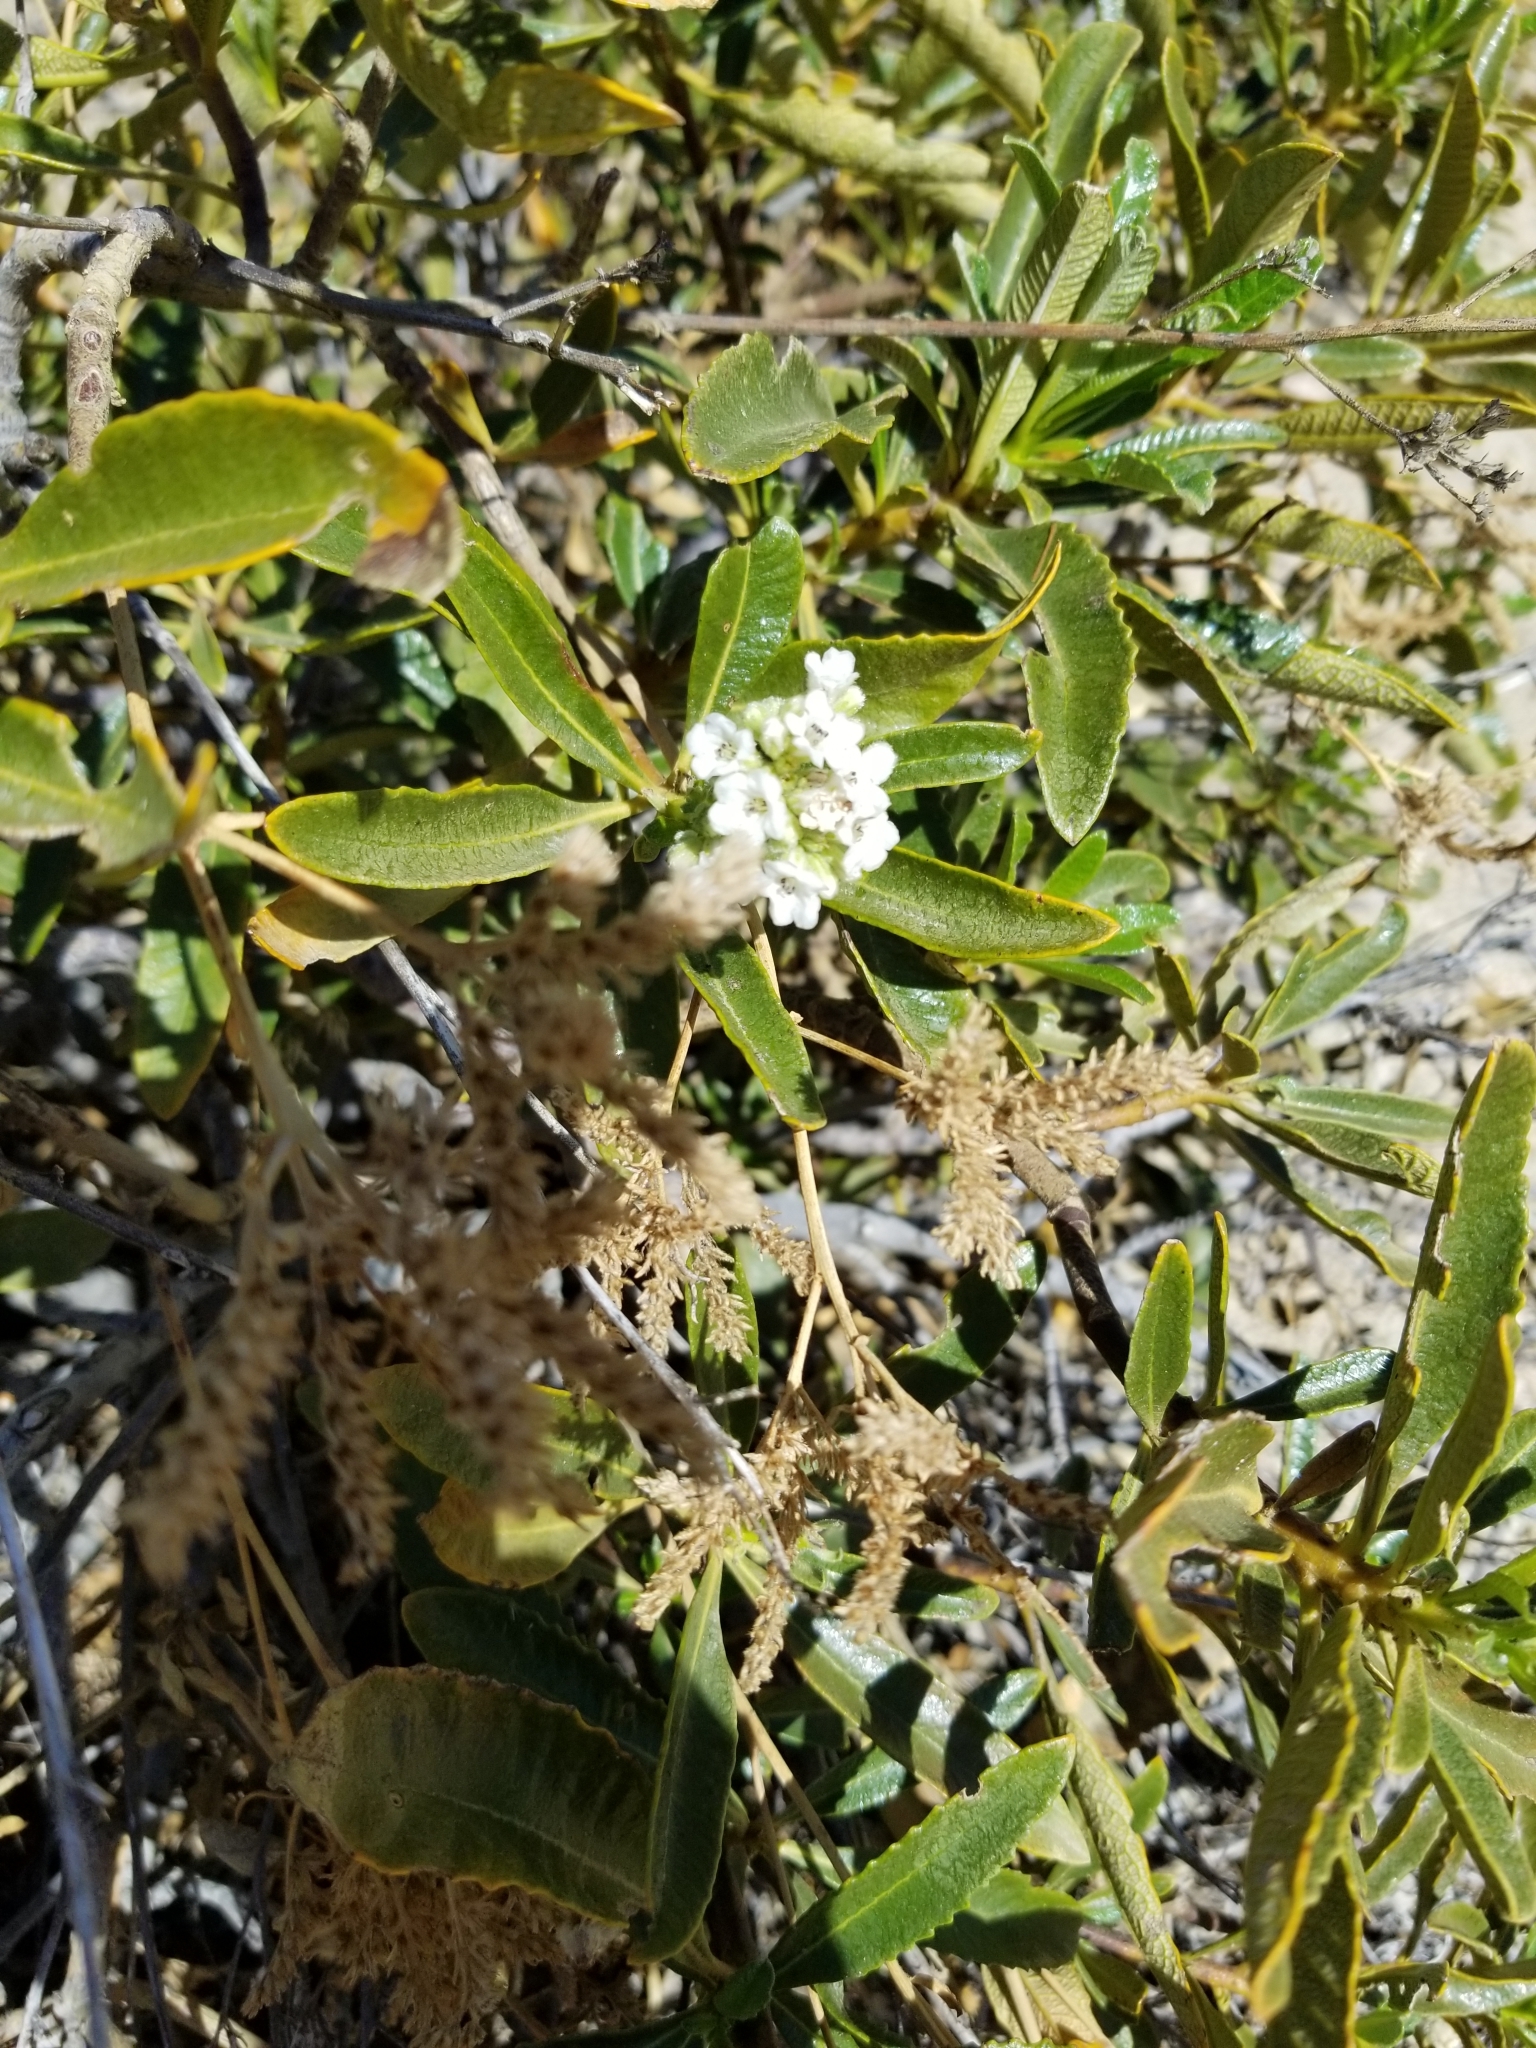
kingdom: Plantae
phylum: Tracheophyta
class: Magnoliopsida
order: Boraginales
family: Namaceae
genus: Eriodictyon
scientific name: Eriodictyon trichocalyx
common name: Hairy yerba-santa
